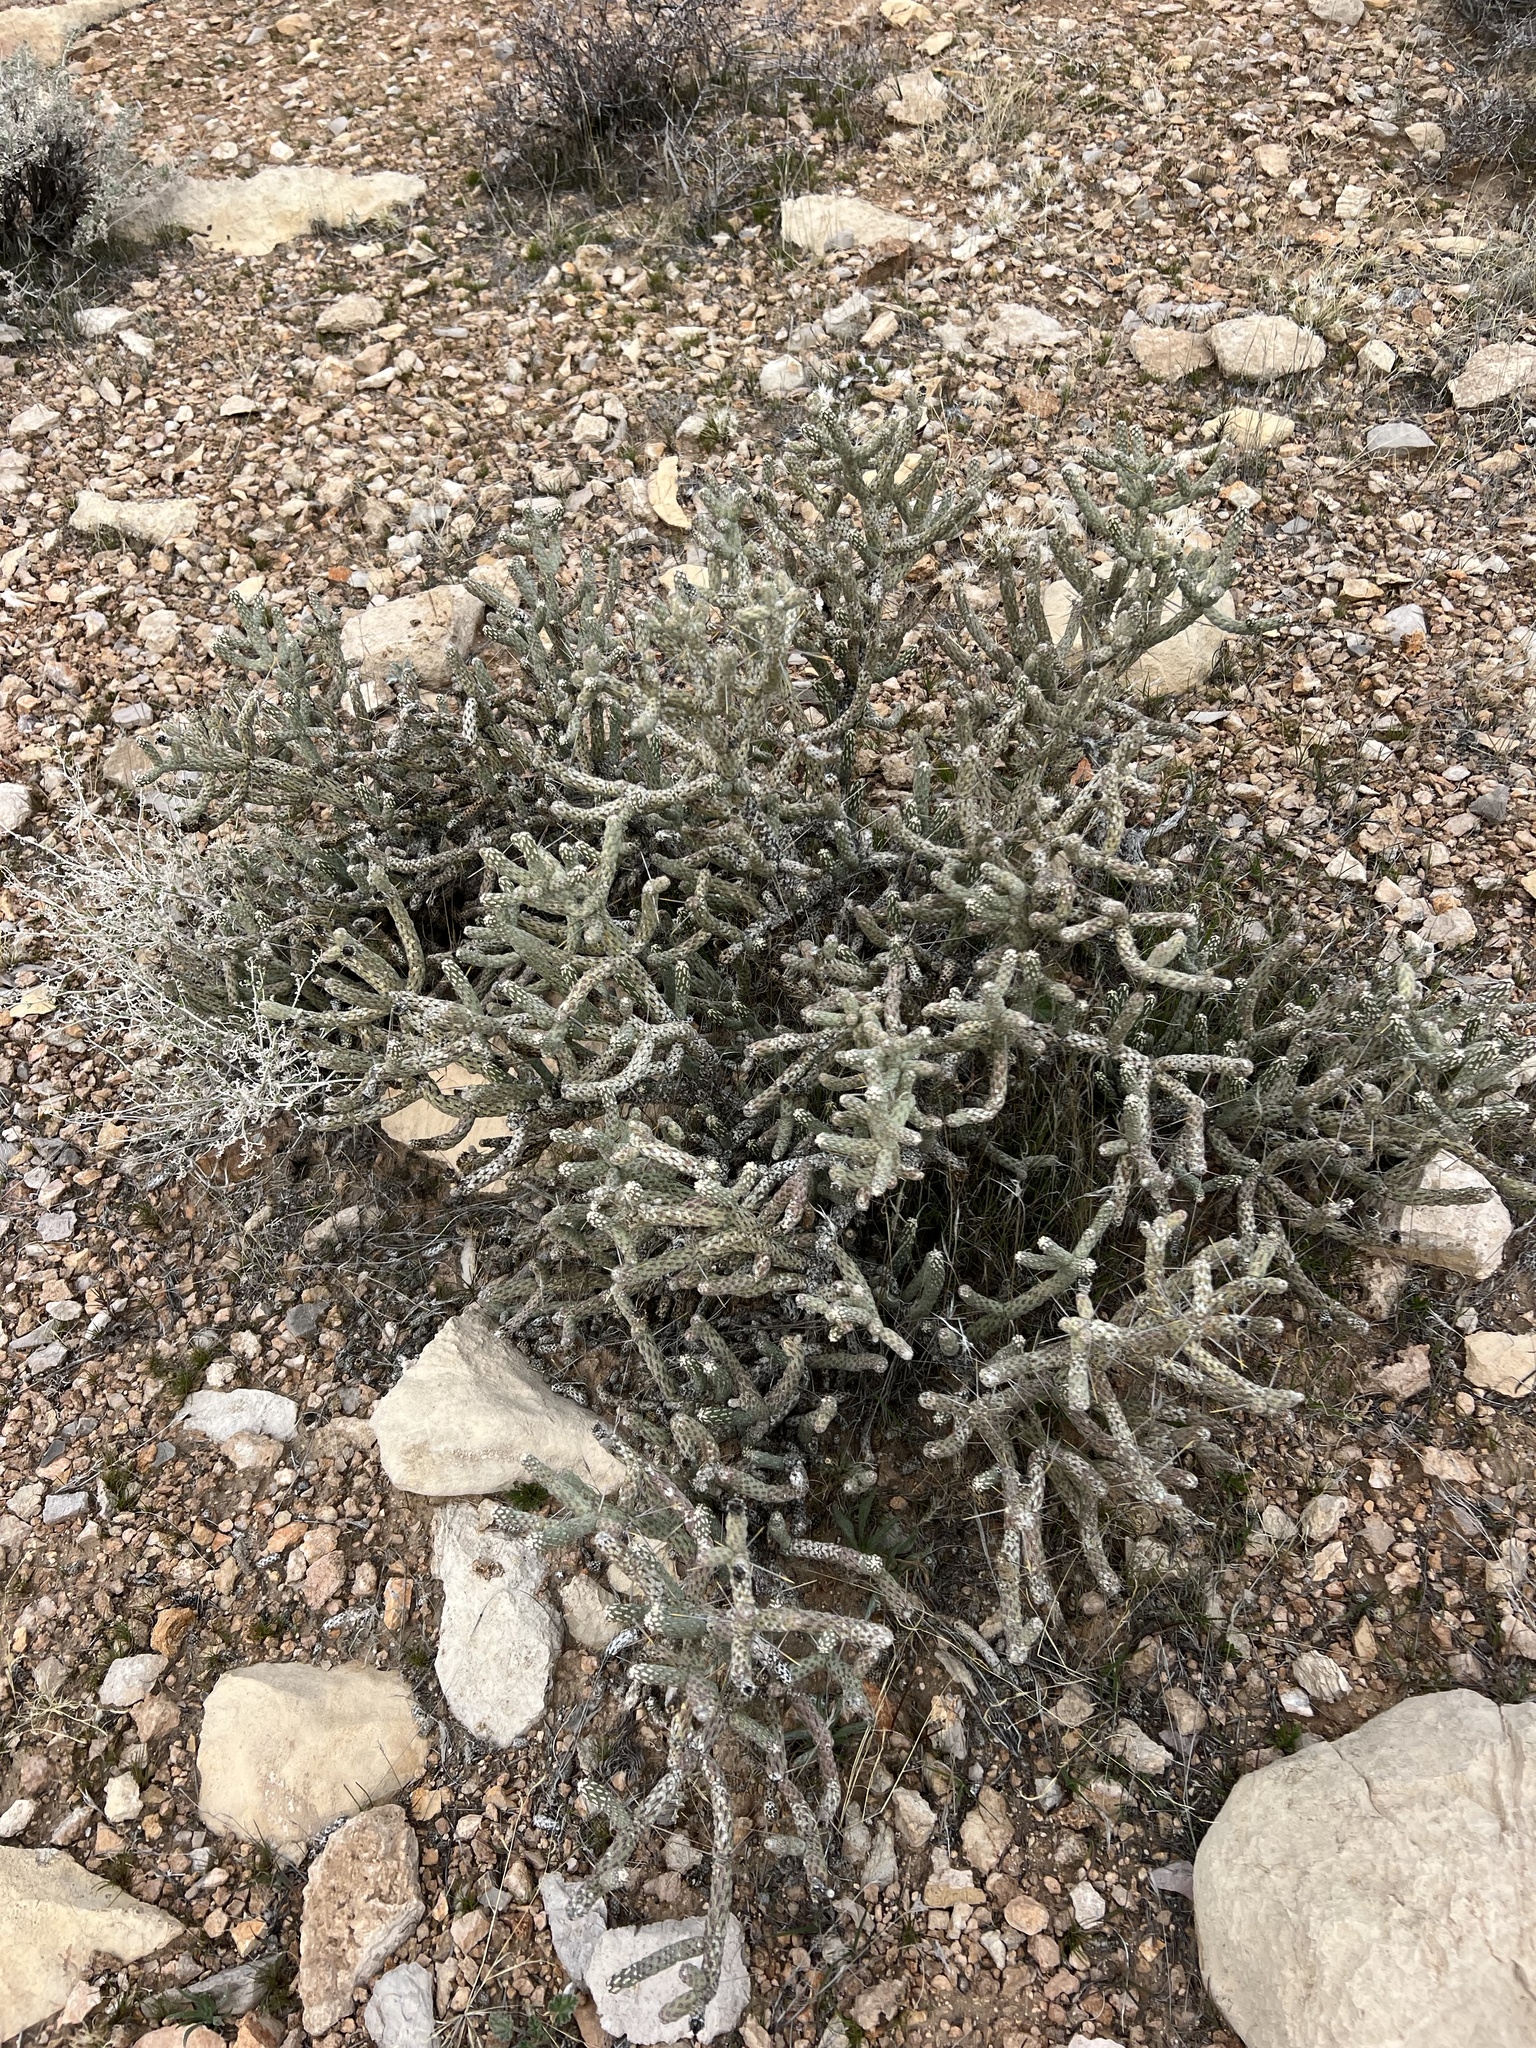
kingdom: Plantae
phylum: Tracheophyta
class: Magnoliopsida
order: Caryophyllales
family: Cactaceae
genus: Cylindropuntia
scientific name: Cylindropuntia ramosissima
